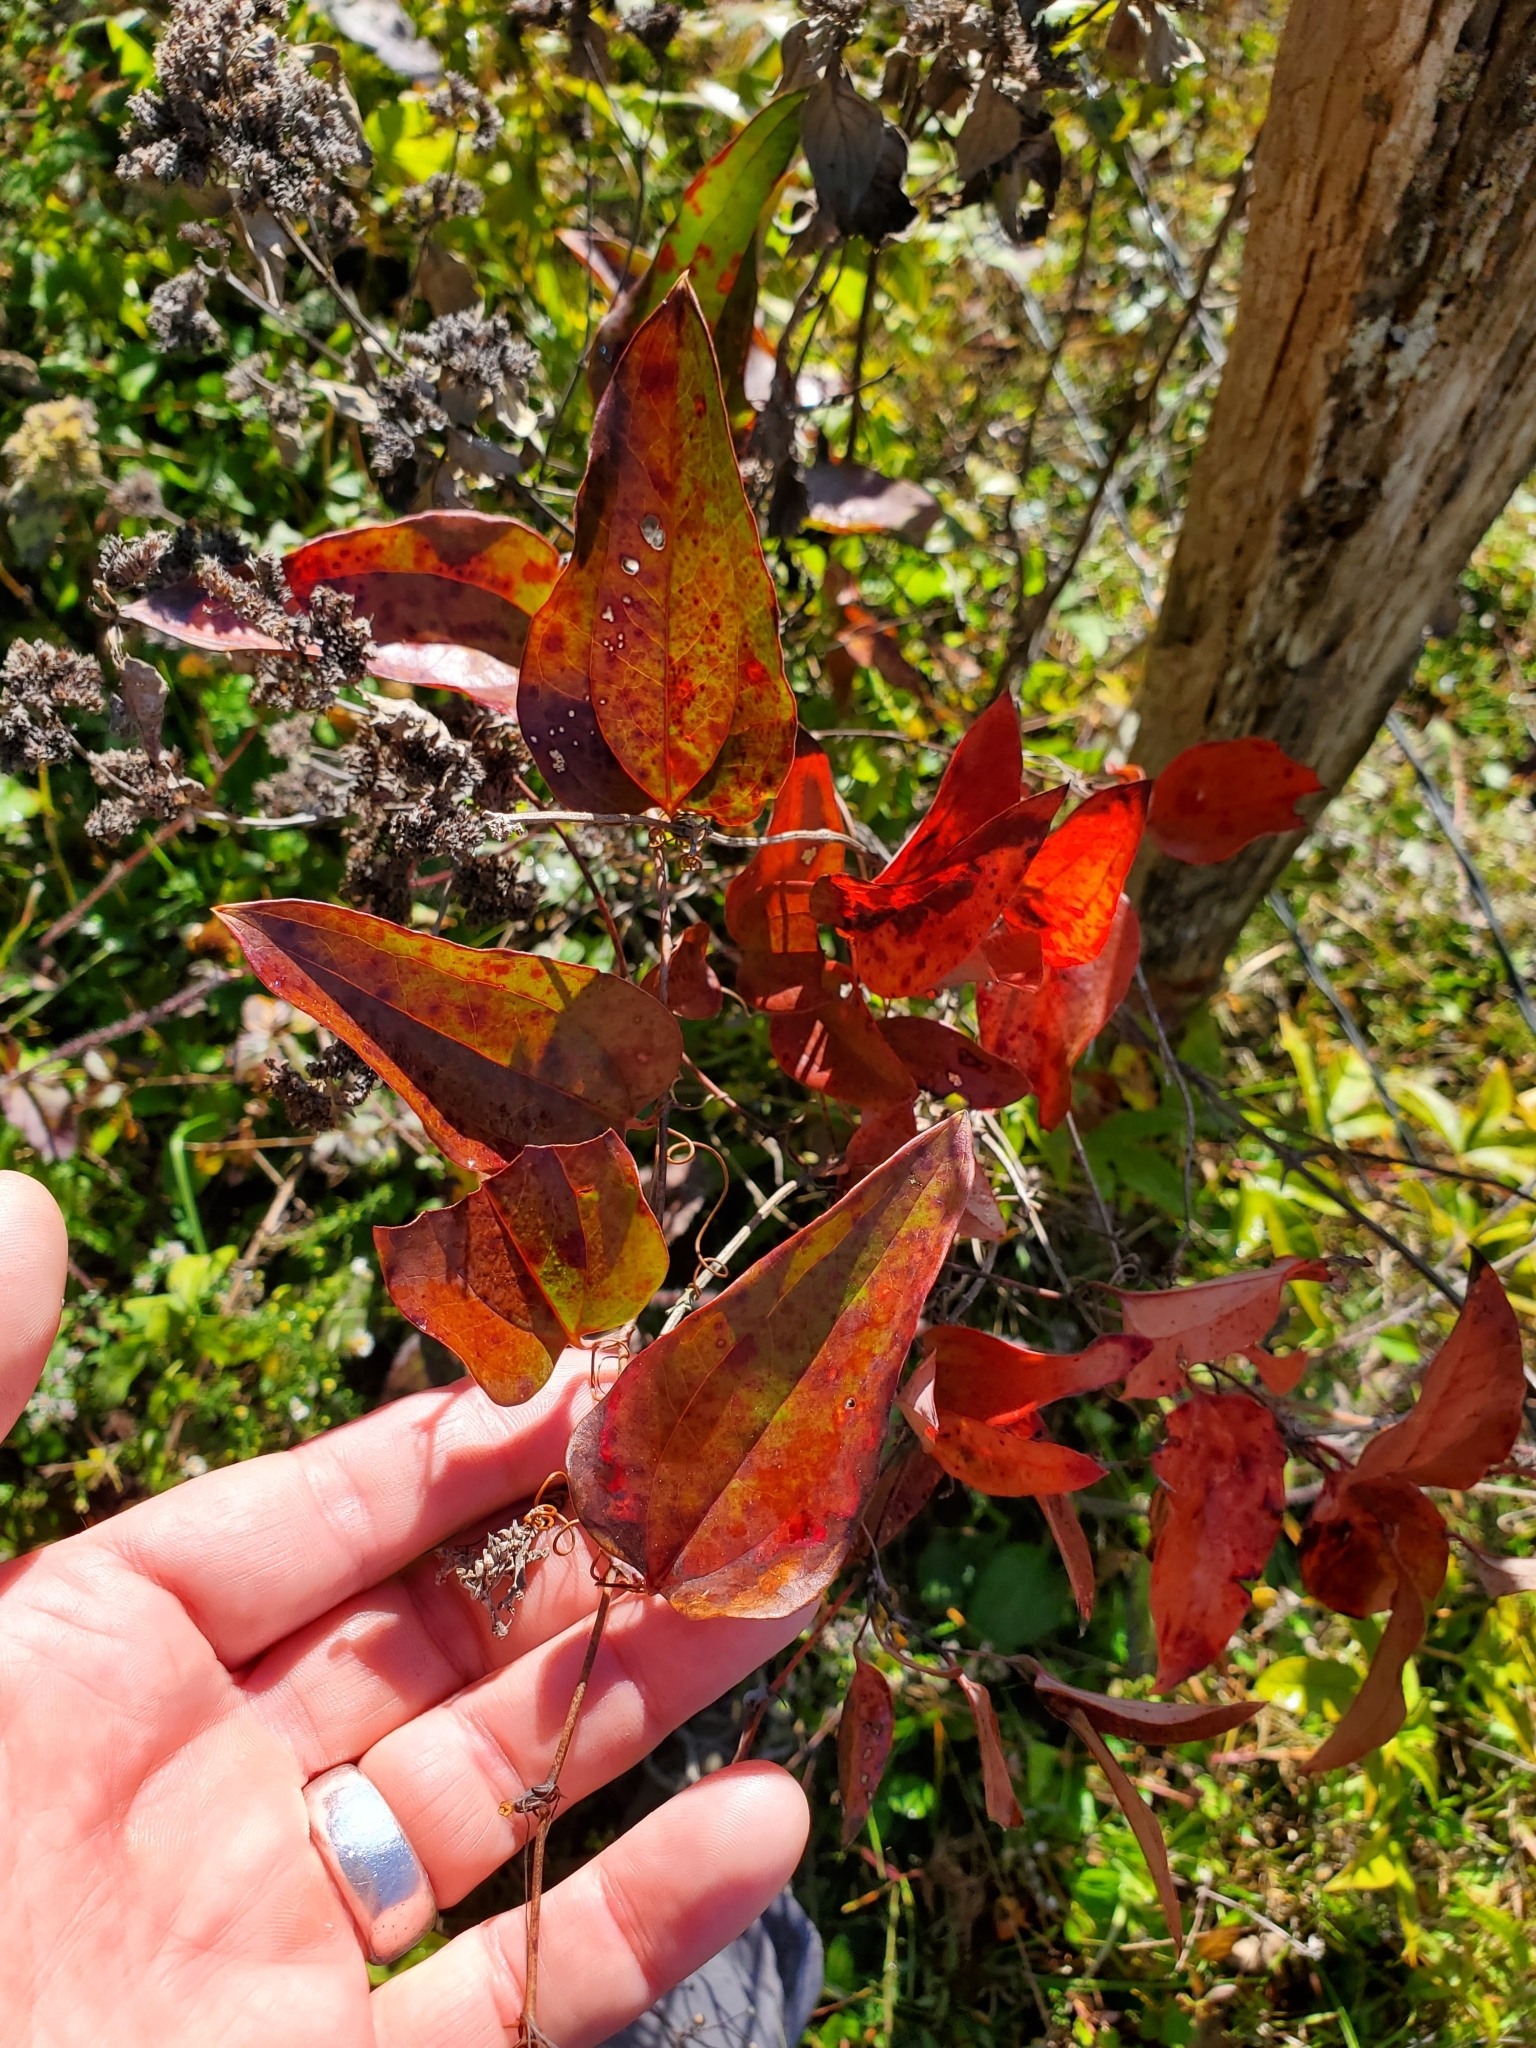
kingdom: Plantae
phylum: Tracheophyta
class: Liliopsida
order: Liliales
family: Smilacaceae
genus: Smilax
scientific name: Smilax glauca
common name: Cat greenbrier
